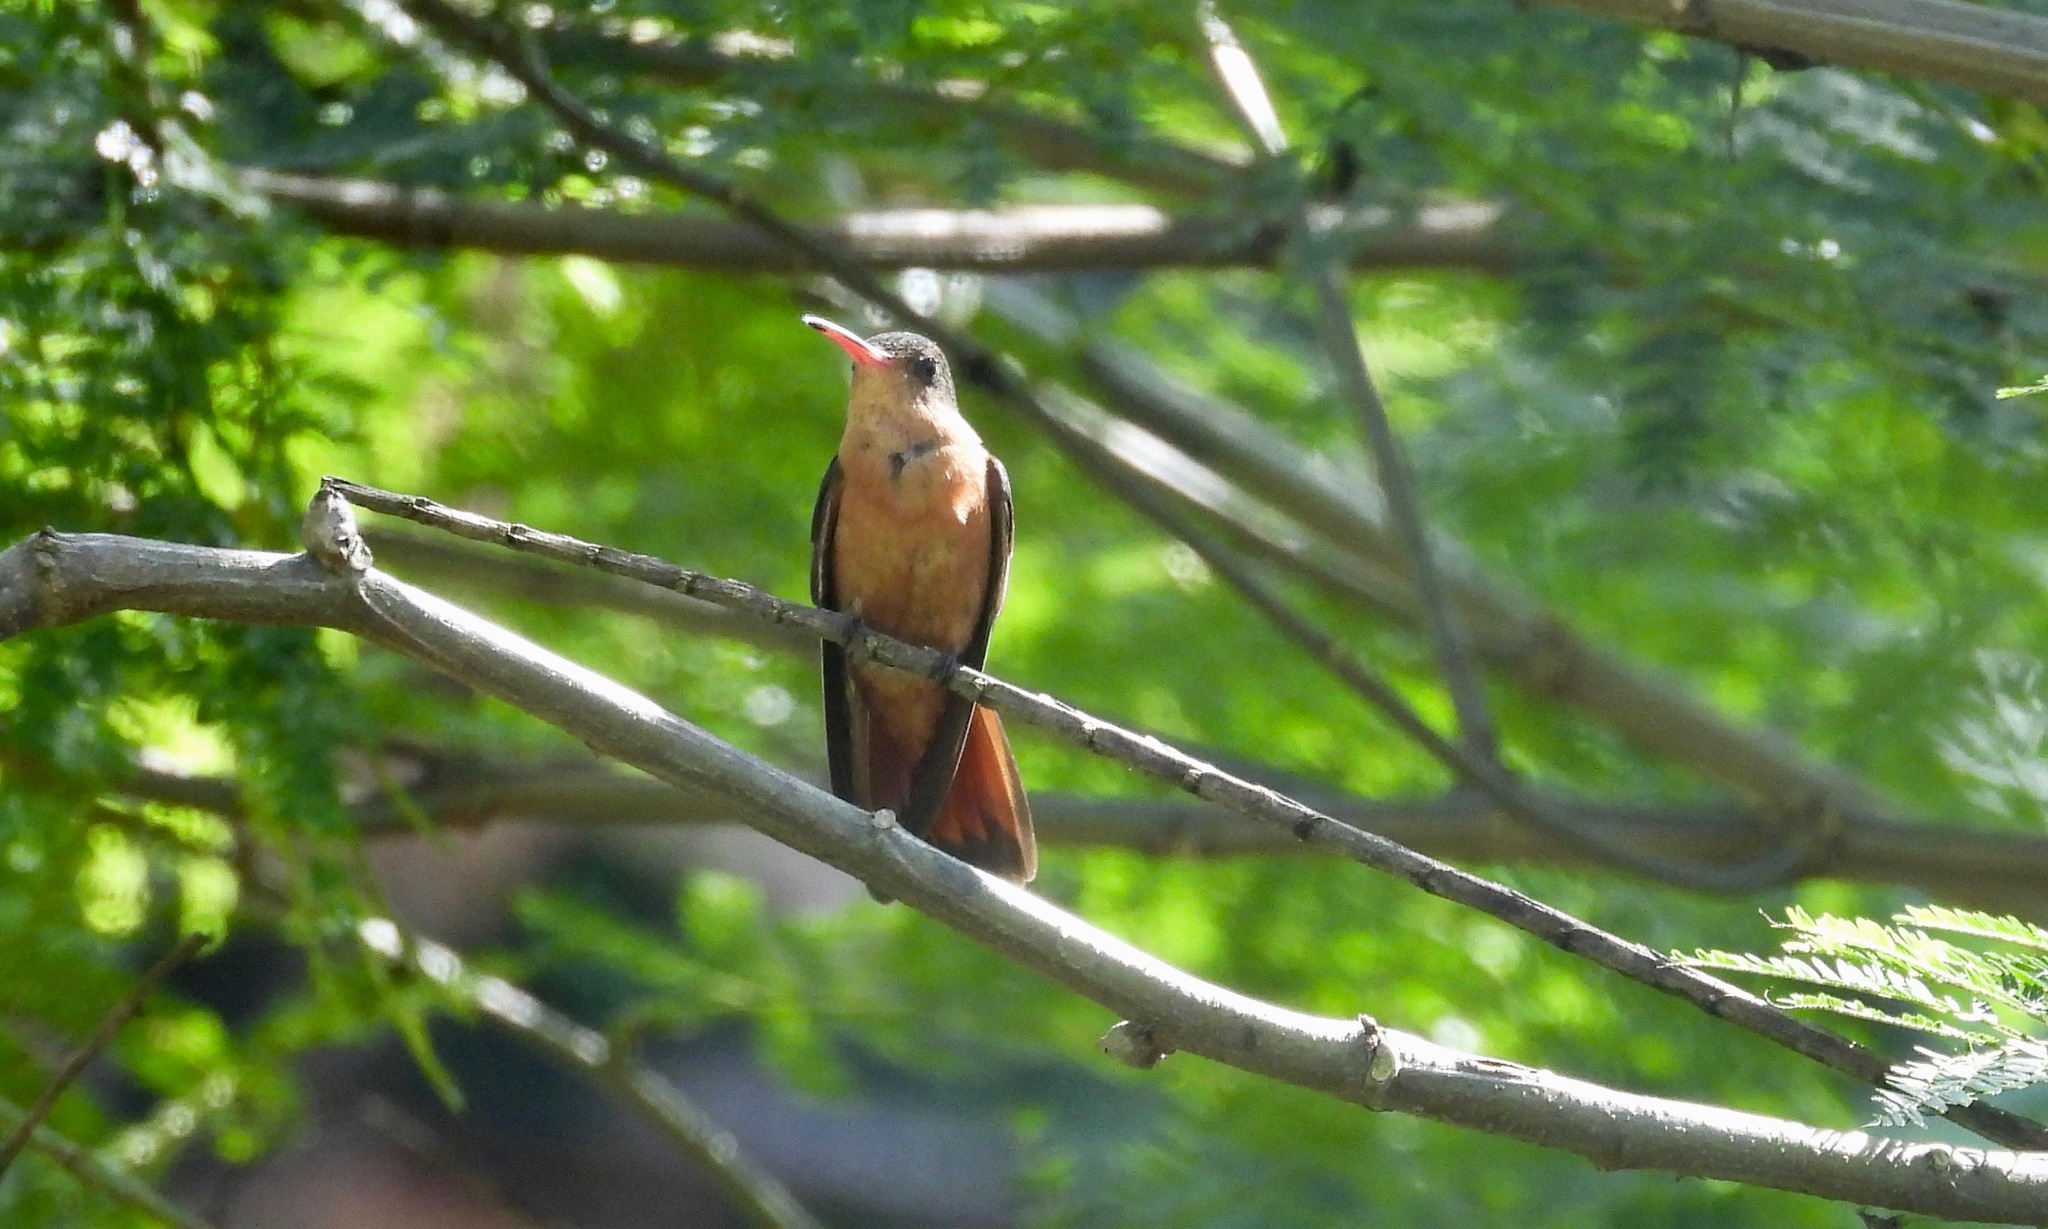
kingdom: Animalia
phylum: Chordata
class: Aves
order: Apodiformes
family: Trochilidae
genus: Amazilia
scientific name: Amazilia rutila
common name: Cinnamon hummingbird
